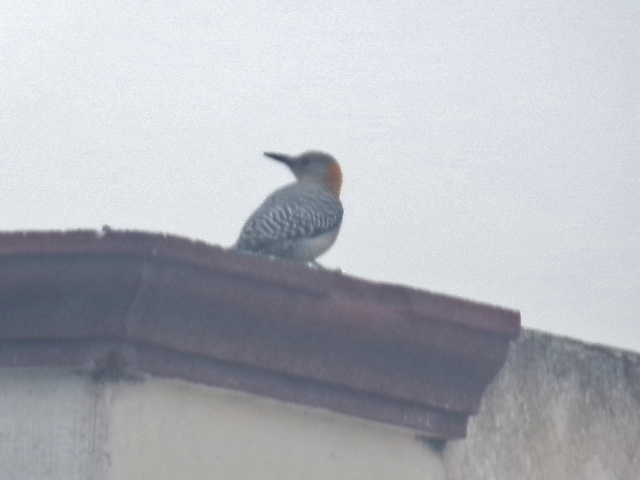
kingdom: Animalia
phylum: Chordata
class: Aves
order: Piciformes
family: Picidae
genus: Melanerpes
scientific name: Melanerpes aurifrons
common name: Golden-fronted woodpecker
